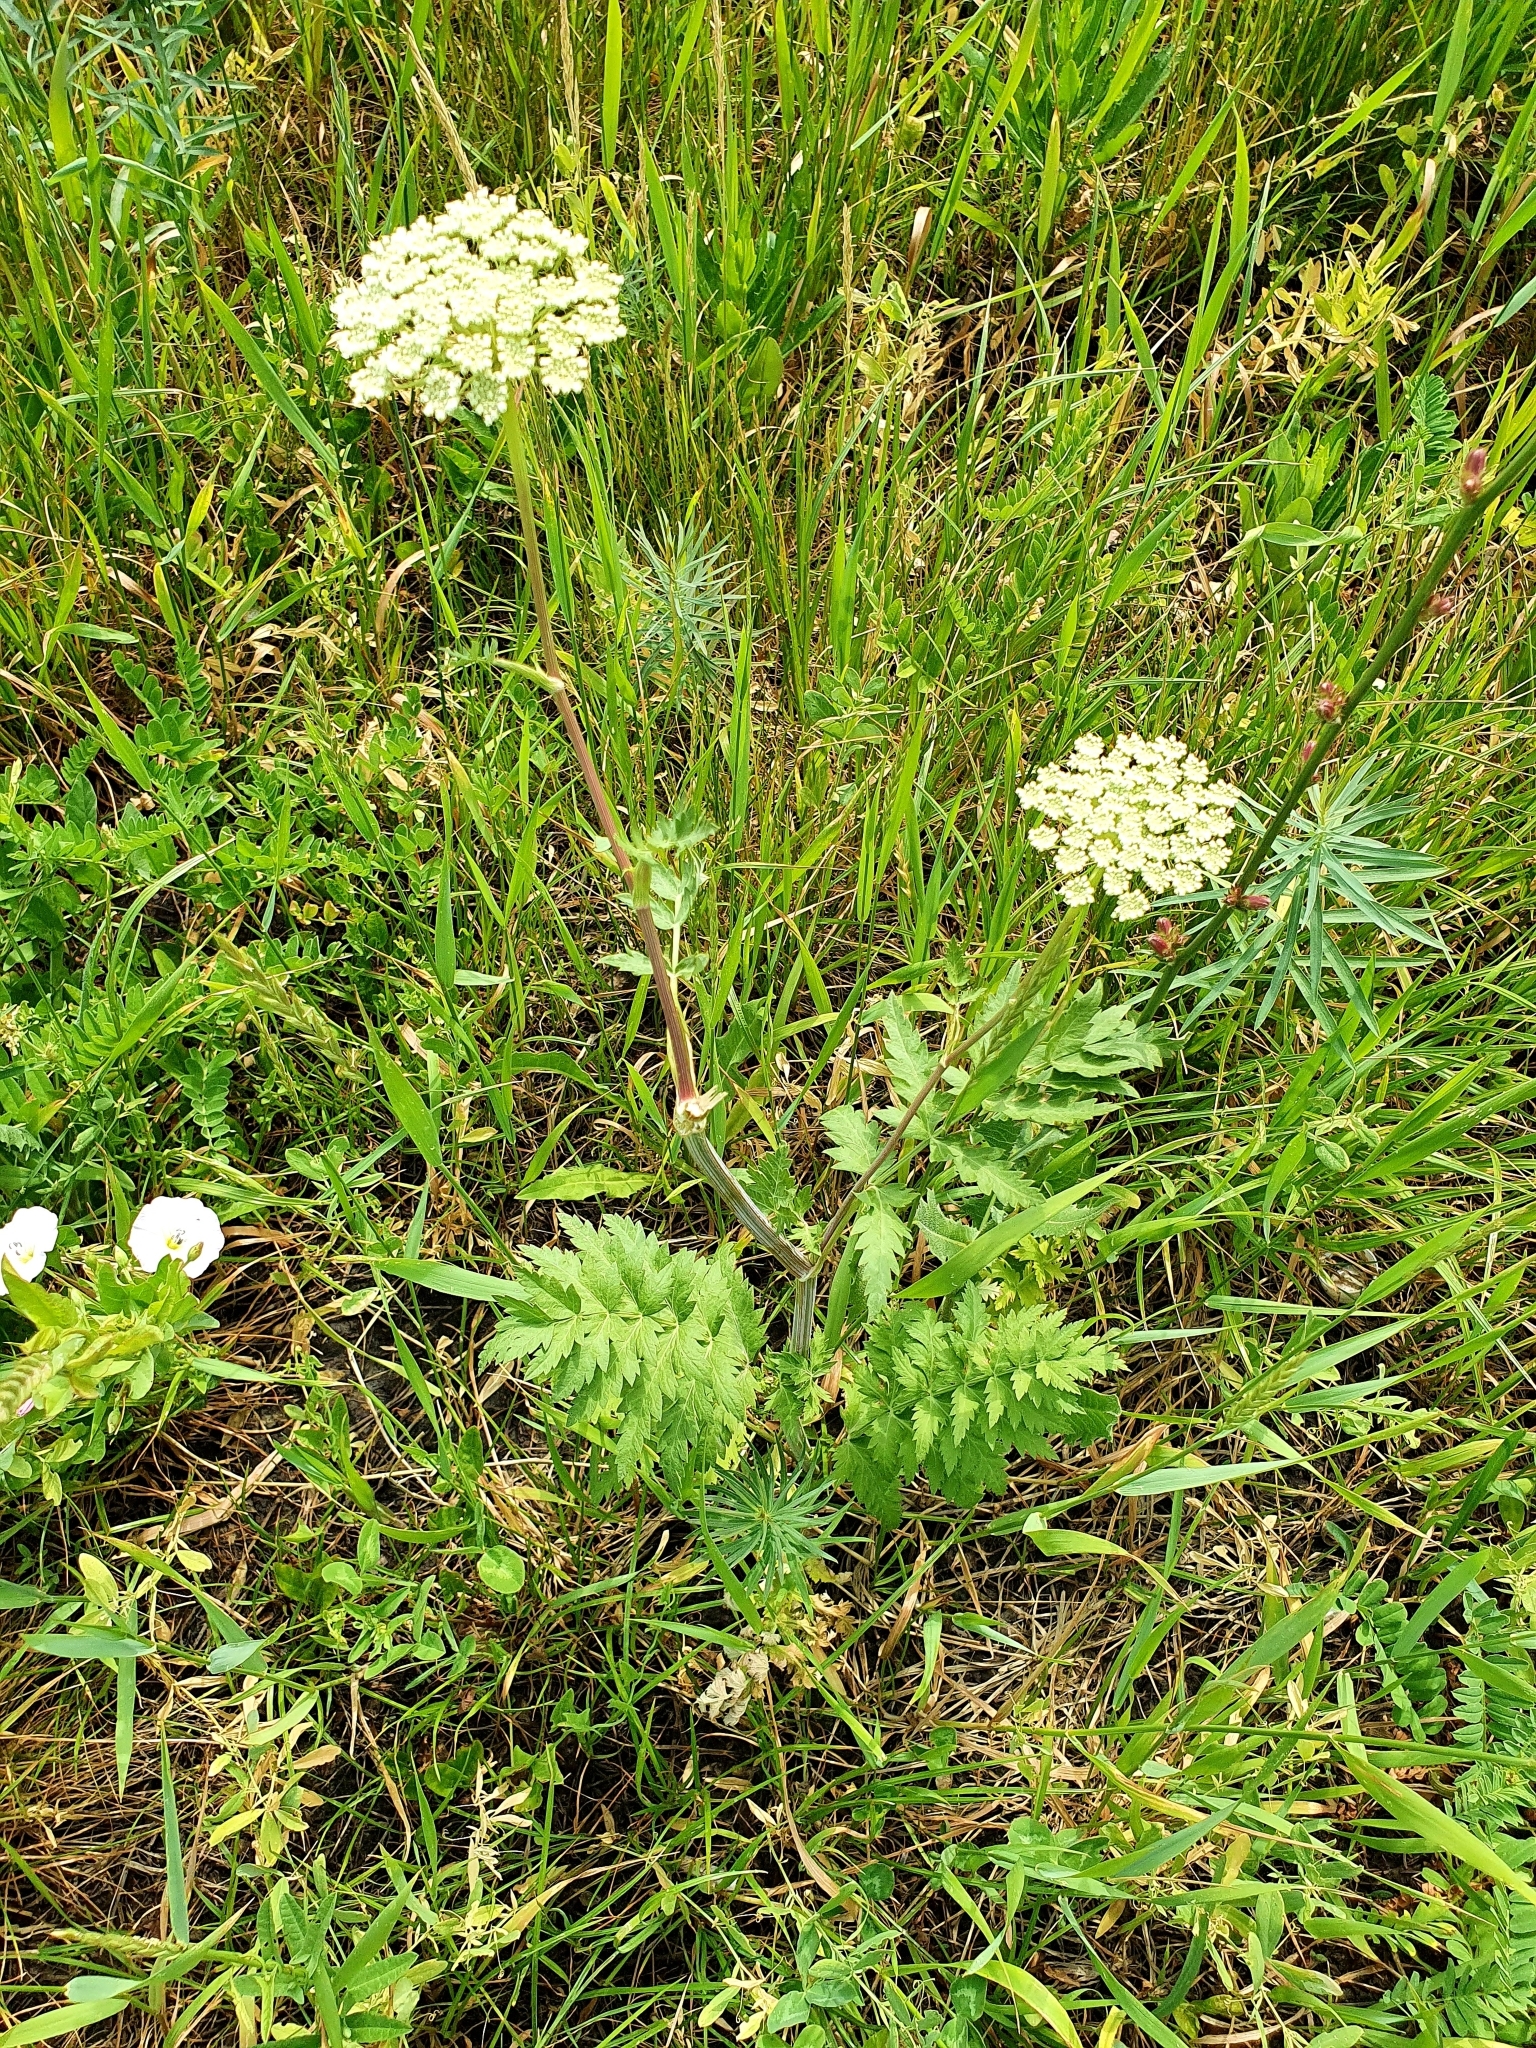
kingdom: Plantae
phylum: Tracheophyta
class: Magnoliopsida
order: Apiales
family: Apiaceae
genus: Seseli
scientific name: Seseli libanotis
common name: Mooncarrot
